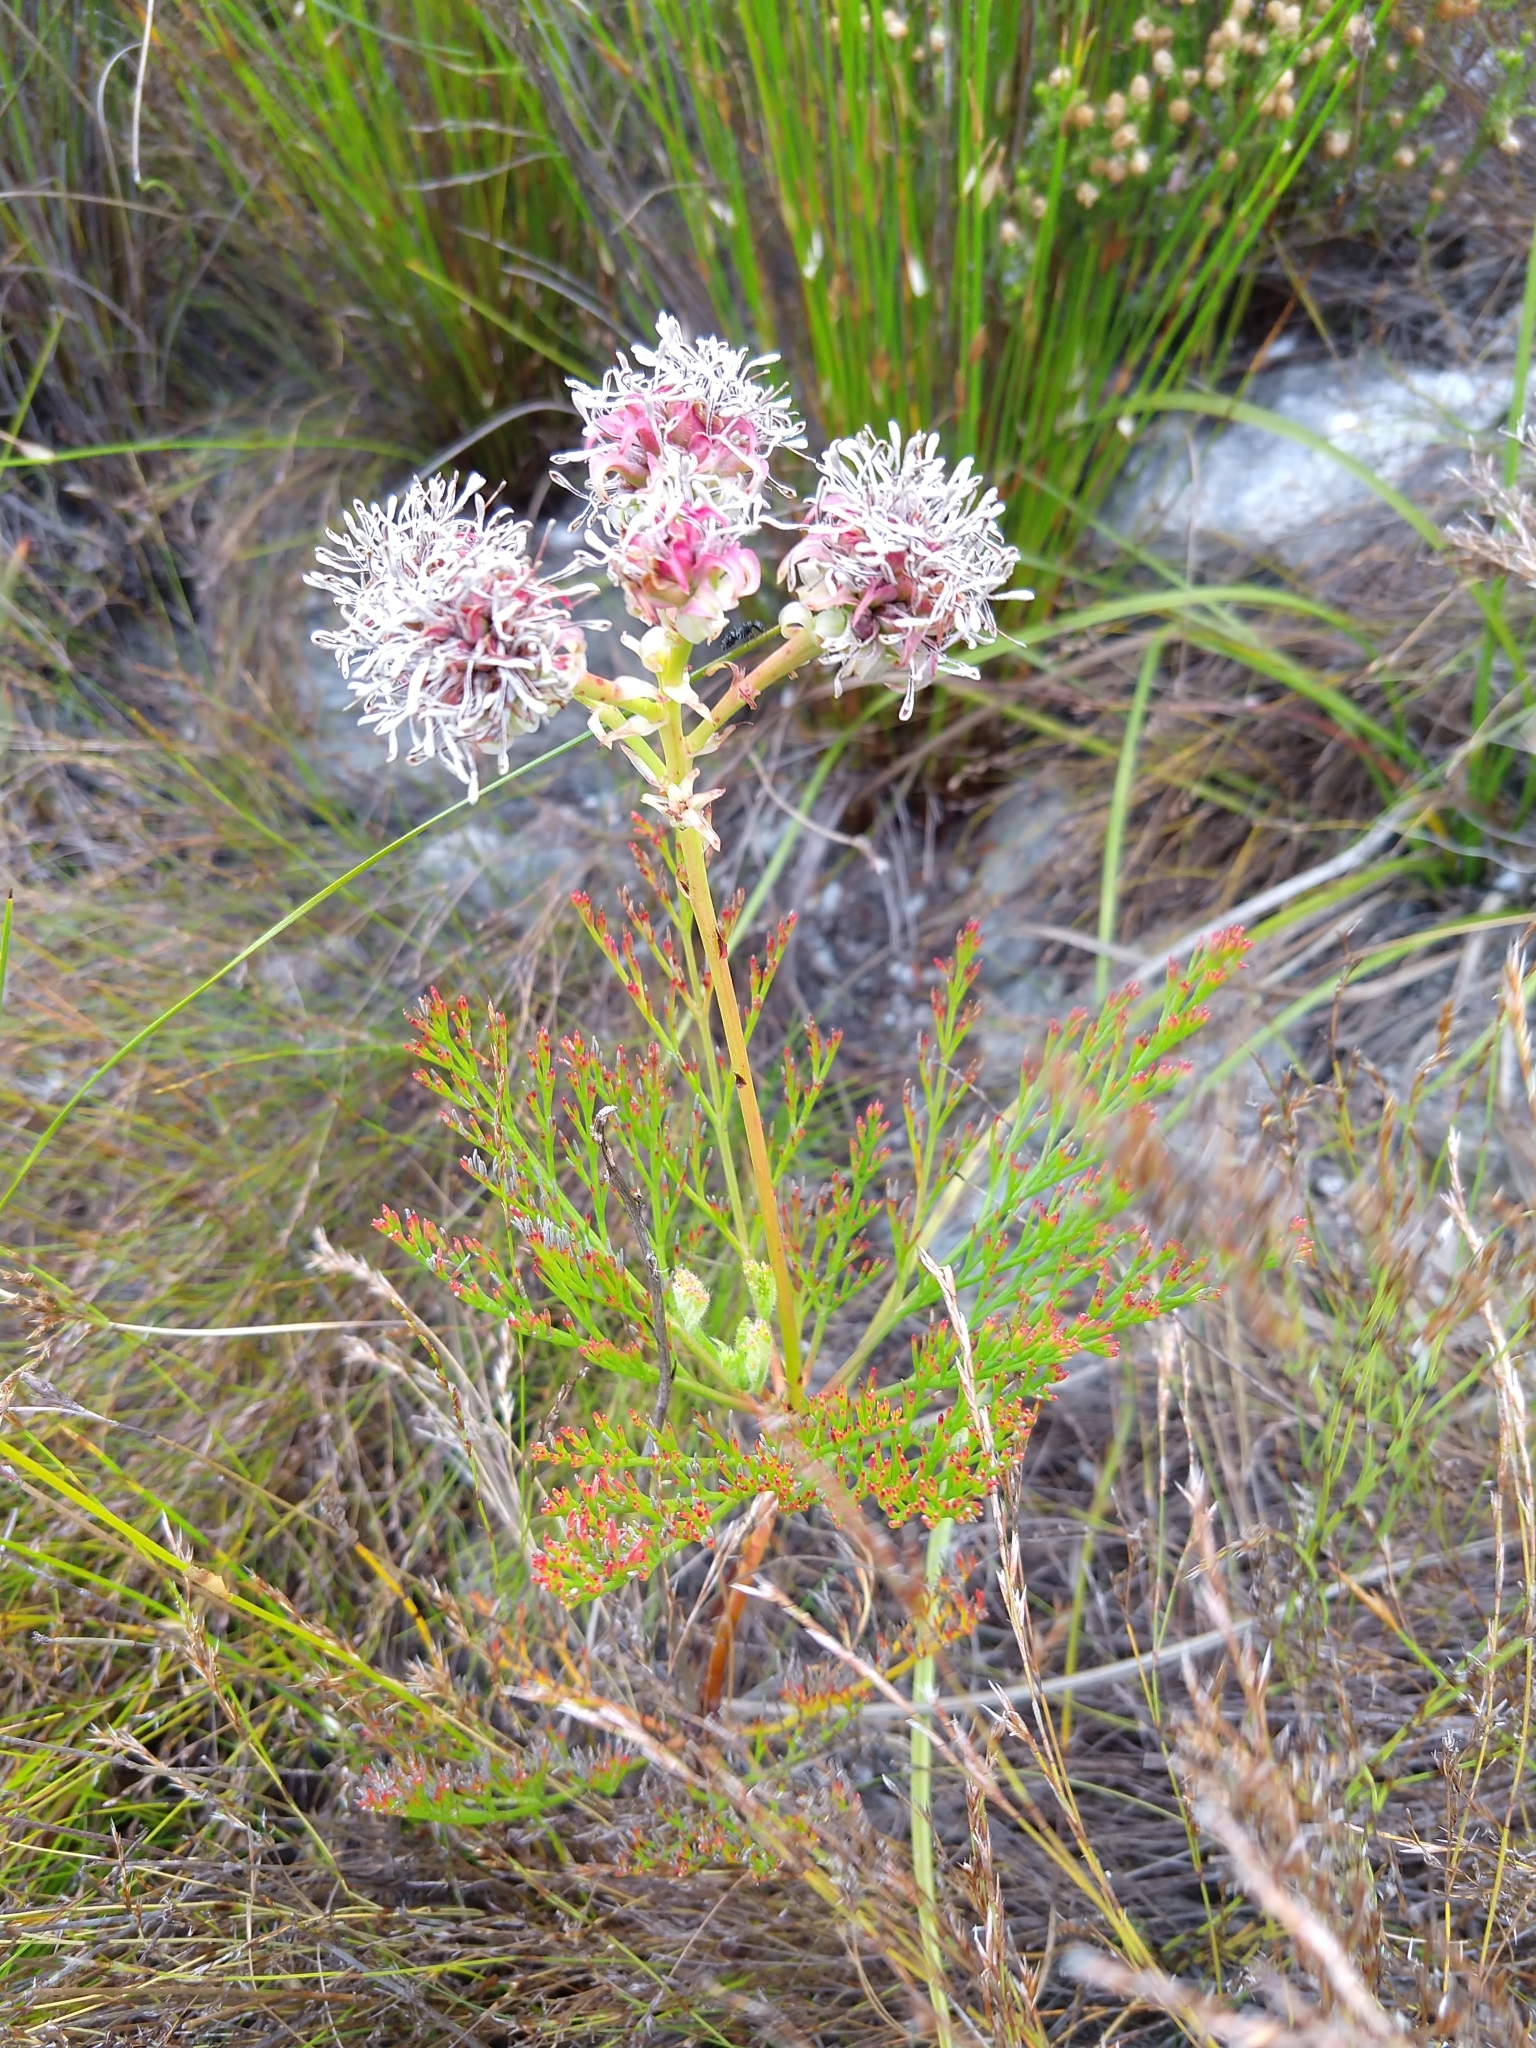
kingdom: Plantae
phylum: Tracheophyta
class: Magnoliopsida
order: Proteales
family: Proteaceae
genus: Serruria
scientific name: Serruria elongata
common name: Long-stalk spiderhead
